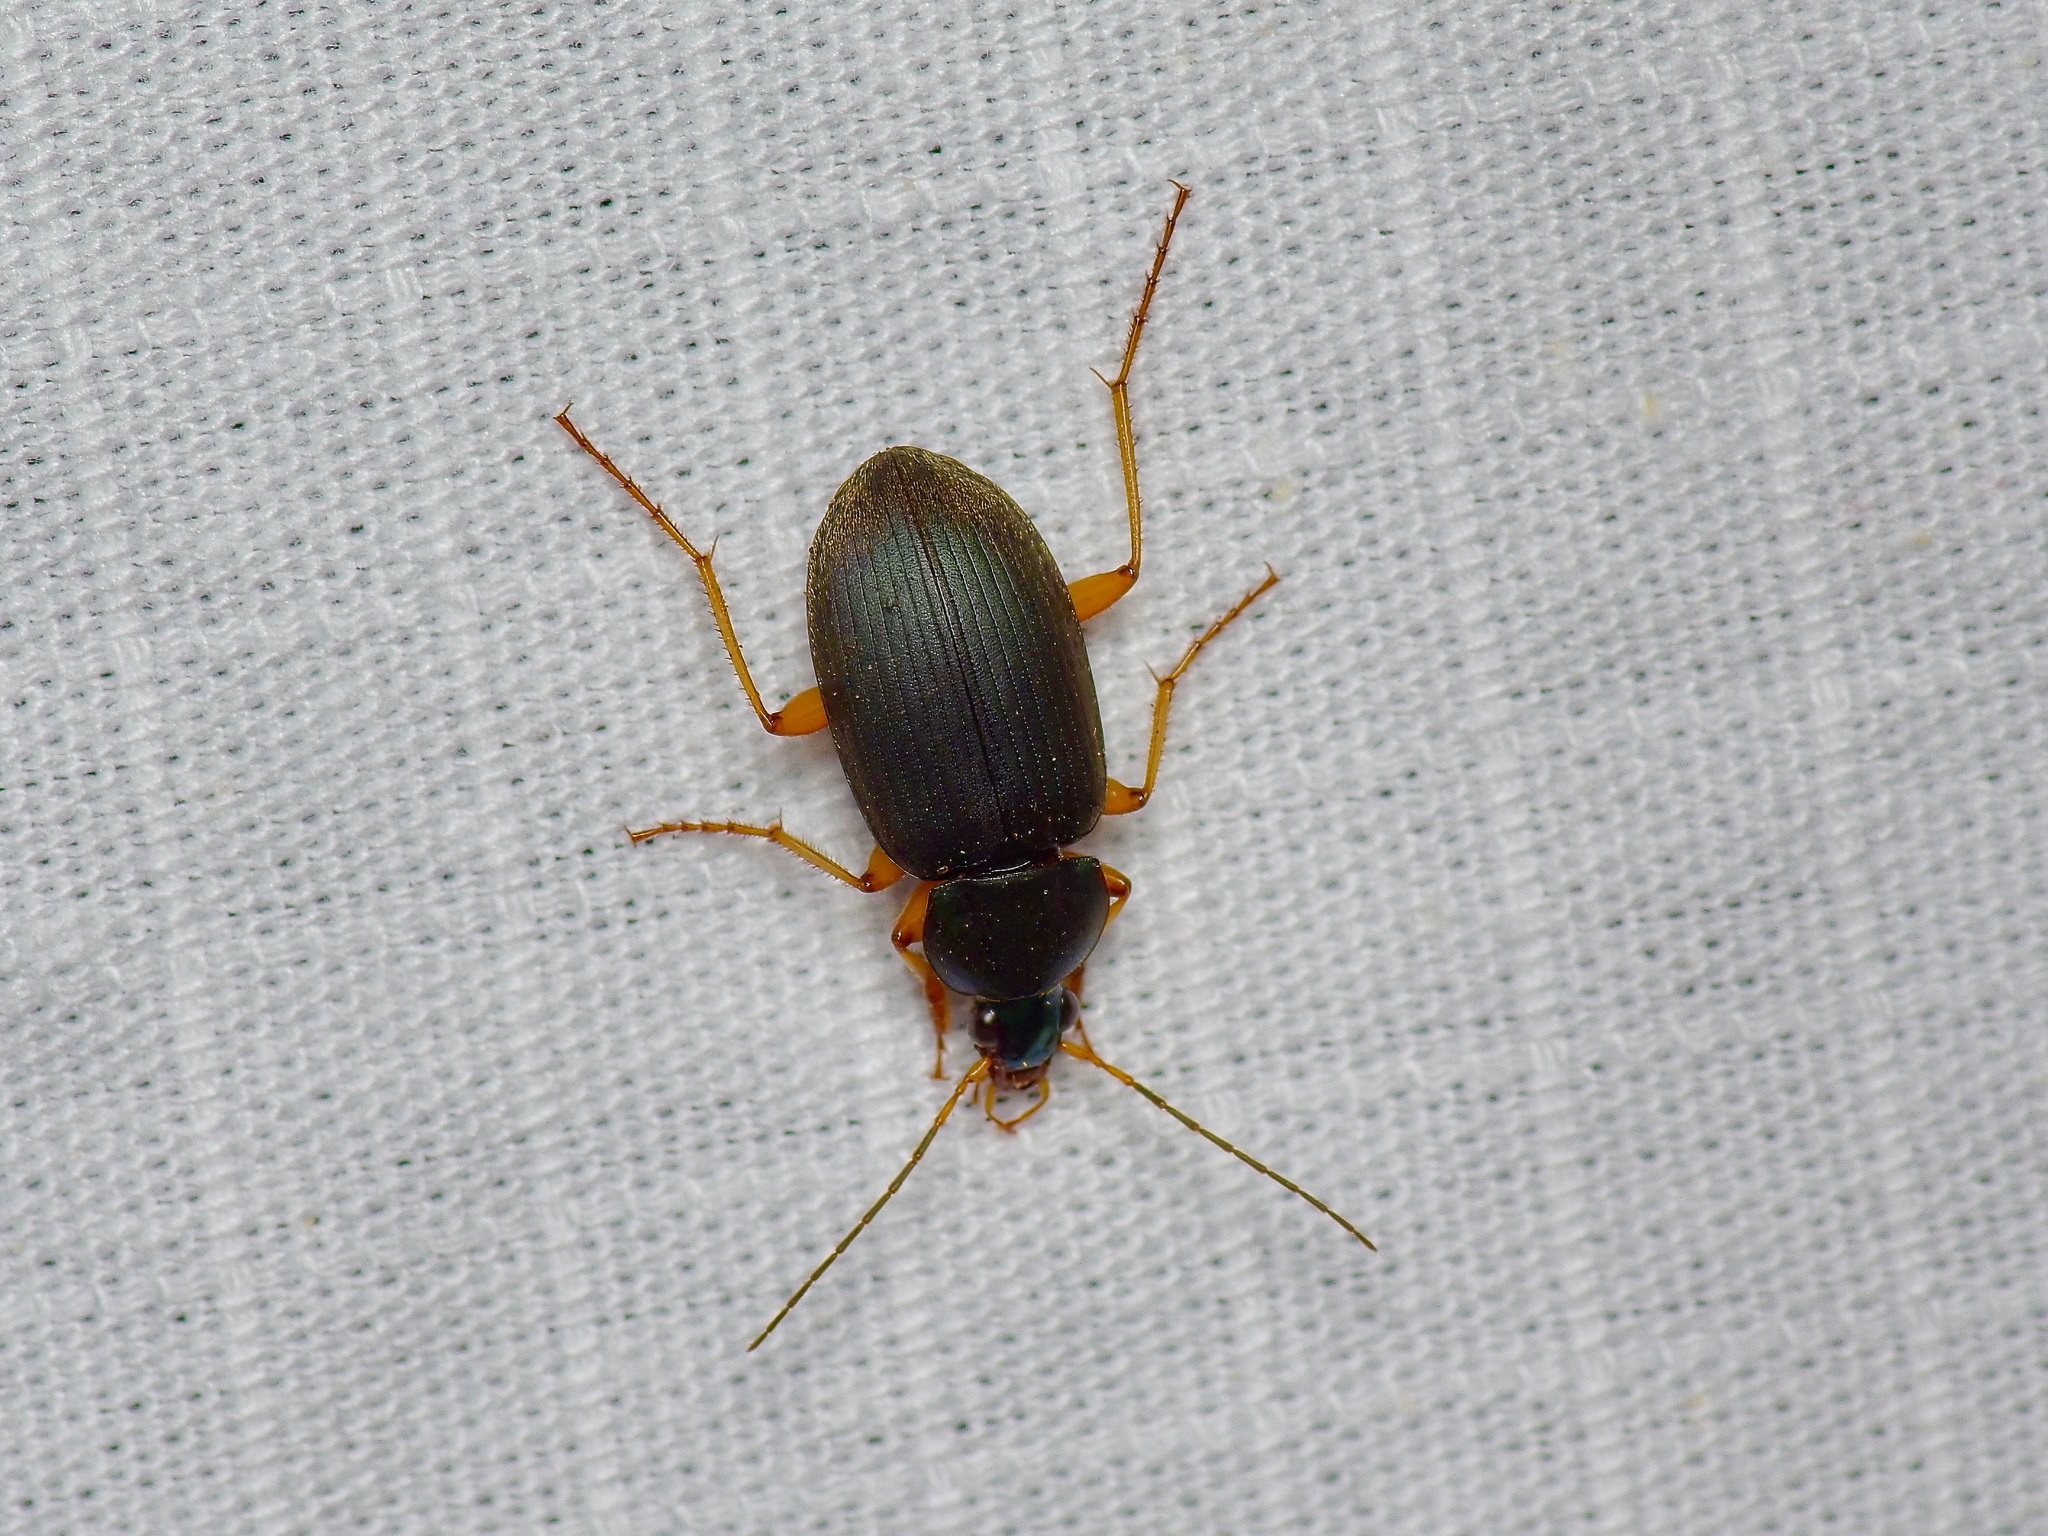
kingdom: Animalia
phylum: Arthropoda
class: Insecta
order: Coleoptera
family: Carabidae
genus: Chlaenius
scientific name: Chlaenius texanus
